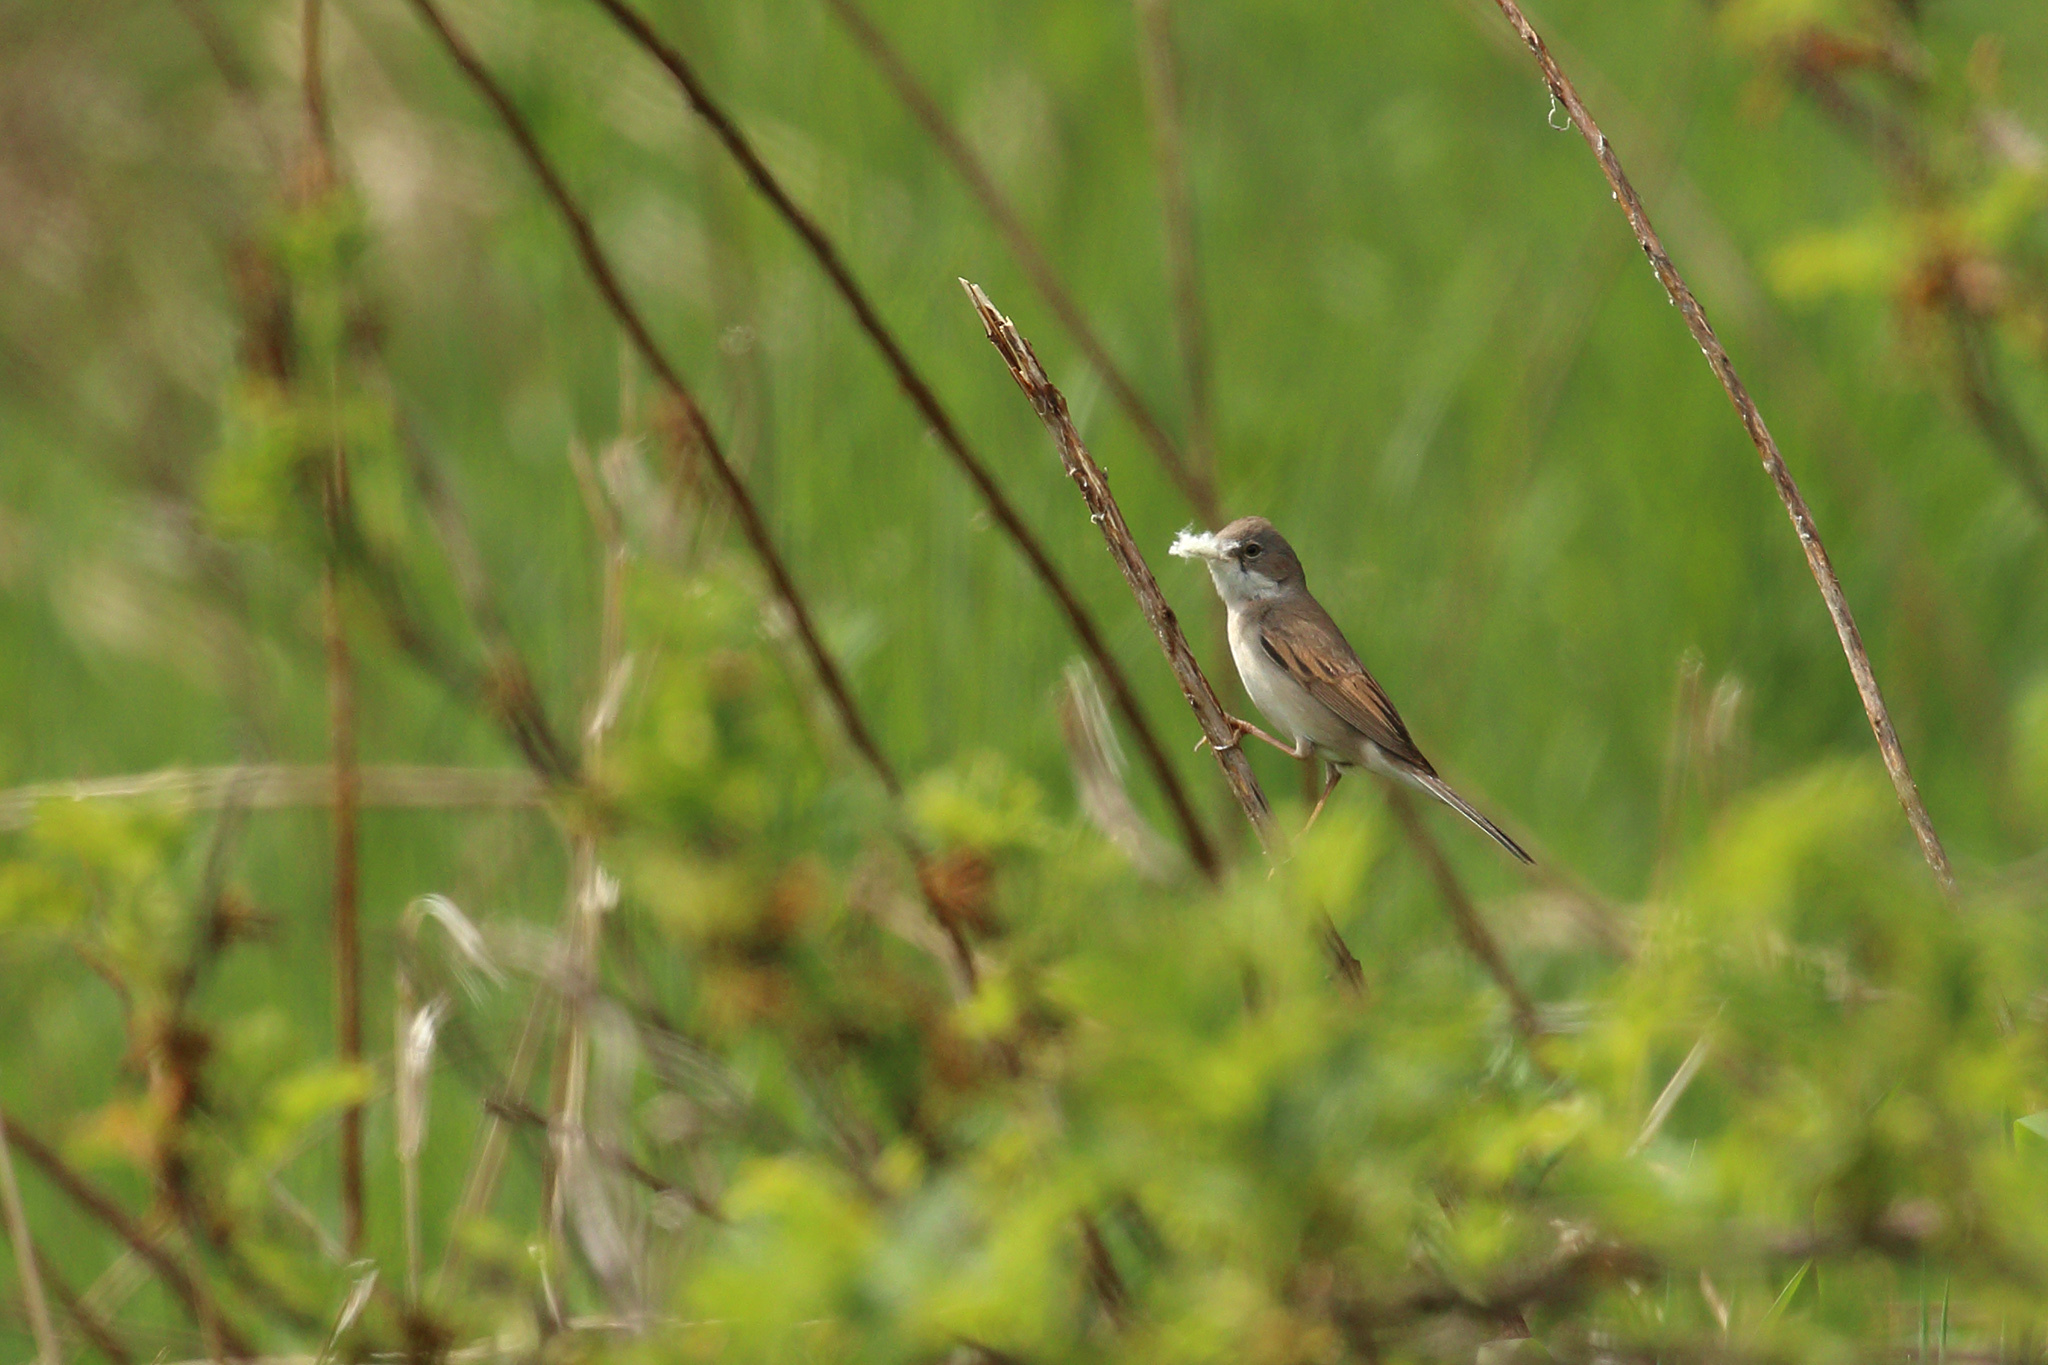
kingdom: Animalia
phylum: Chordata
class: Aves
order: Passeriformes
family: Sylviidae
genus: Sylvia
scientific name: Sylvia communis
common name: Common whitethroat
